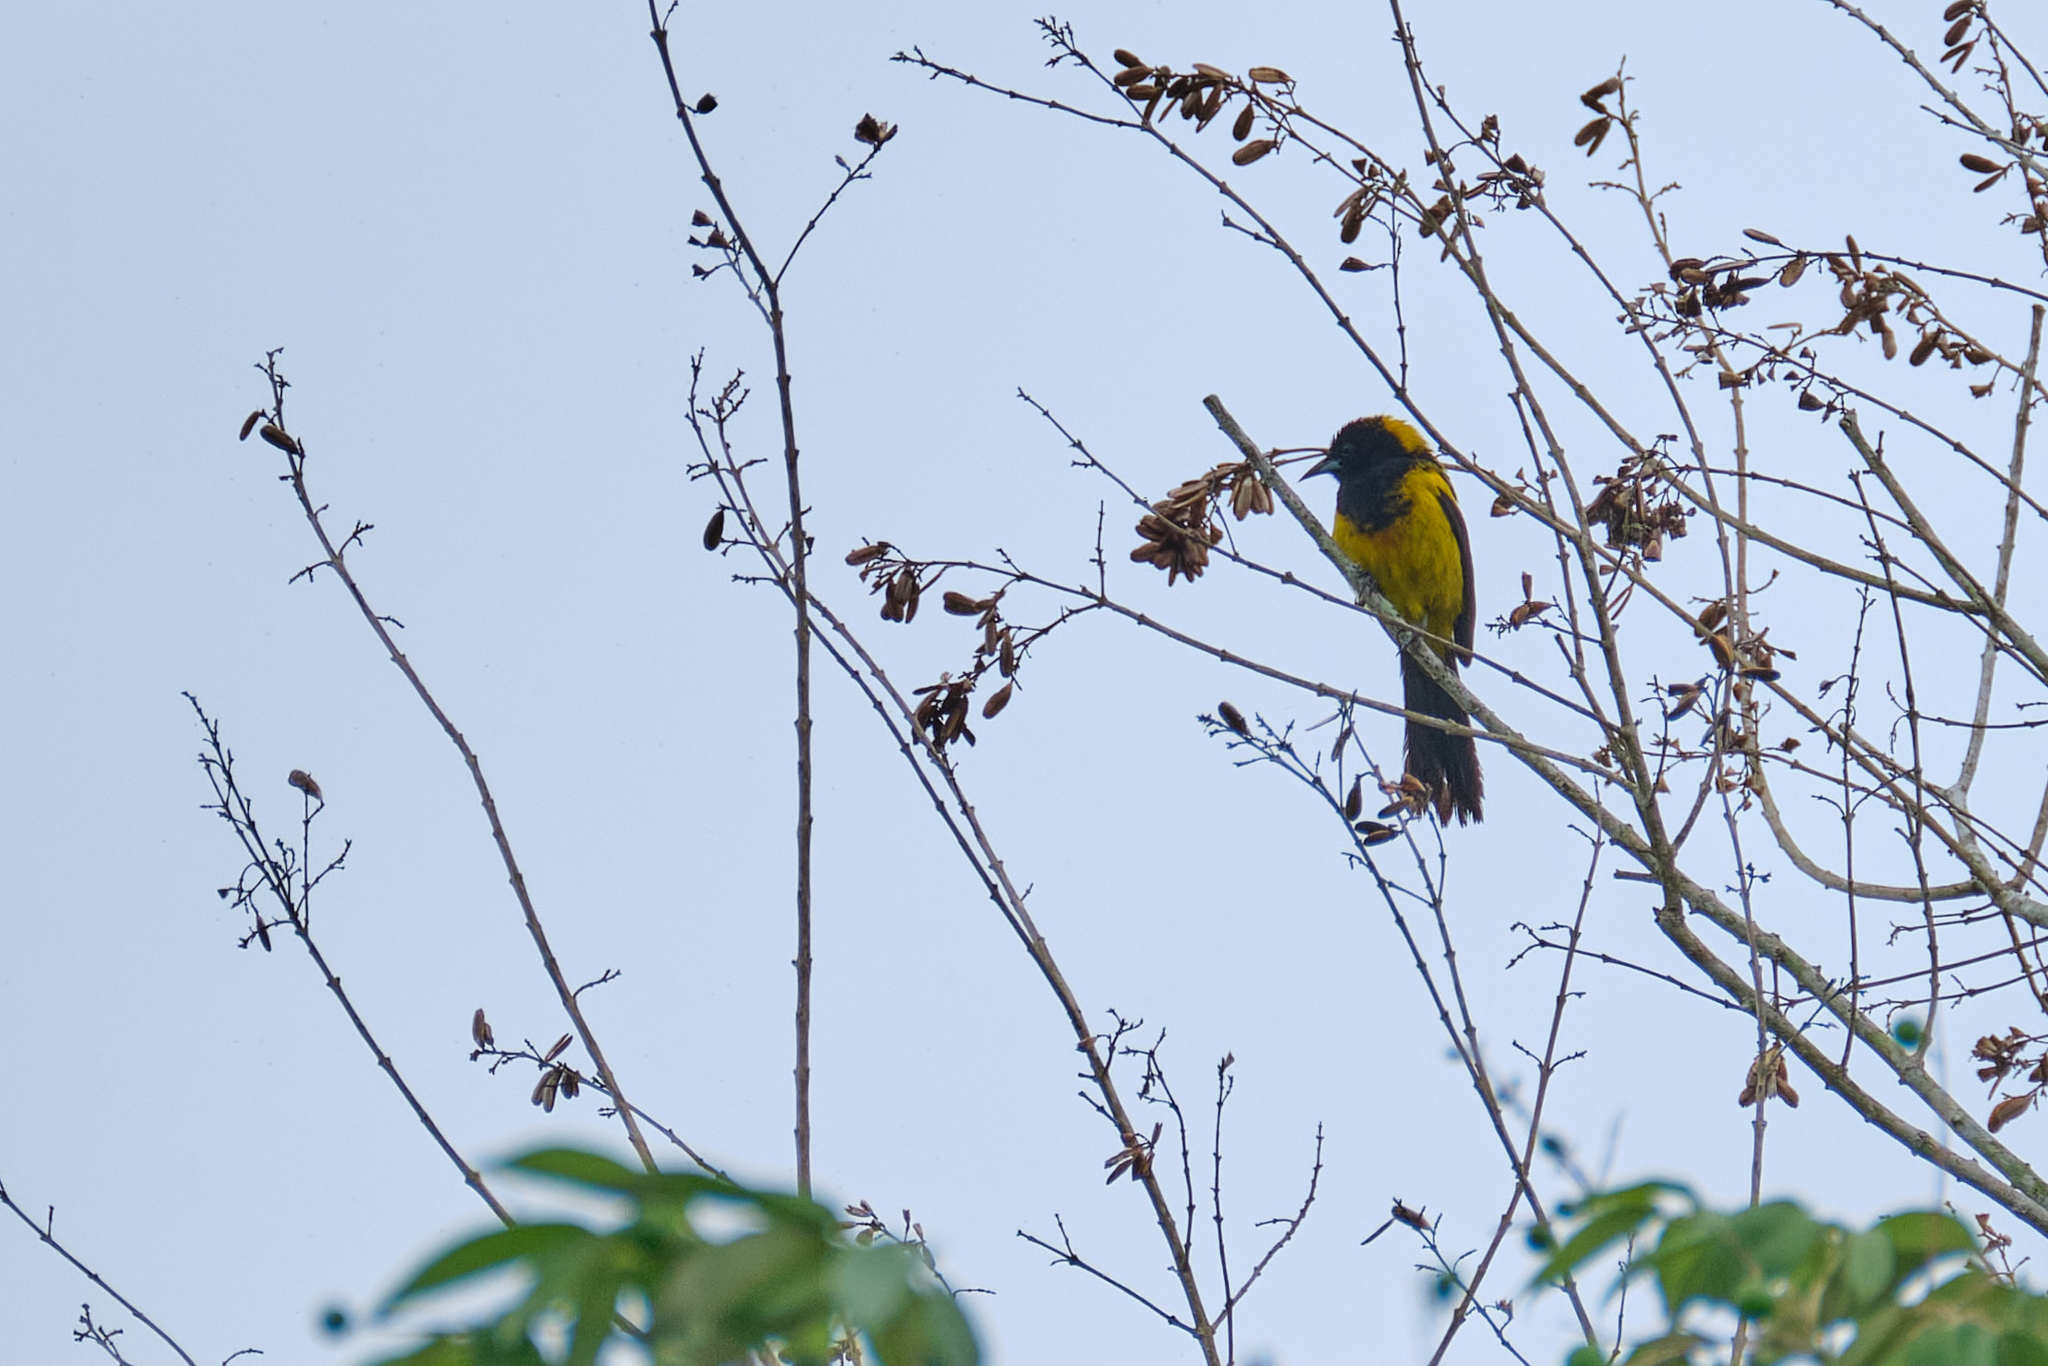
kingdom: Animalia
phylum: Chordata
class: Aves
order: Passeriformes
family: Icteridae
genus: Icterus
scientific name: Icterus prosthemelas
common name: Black-cowled oriole
